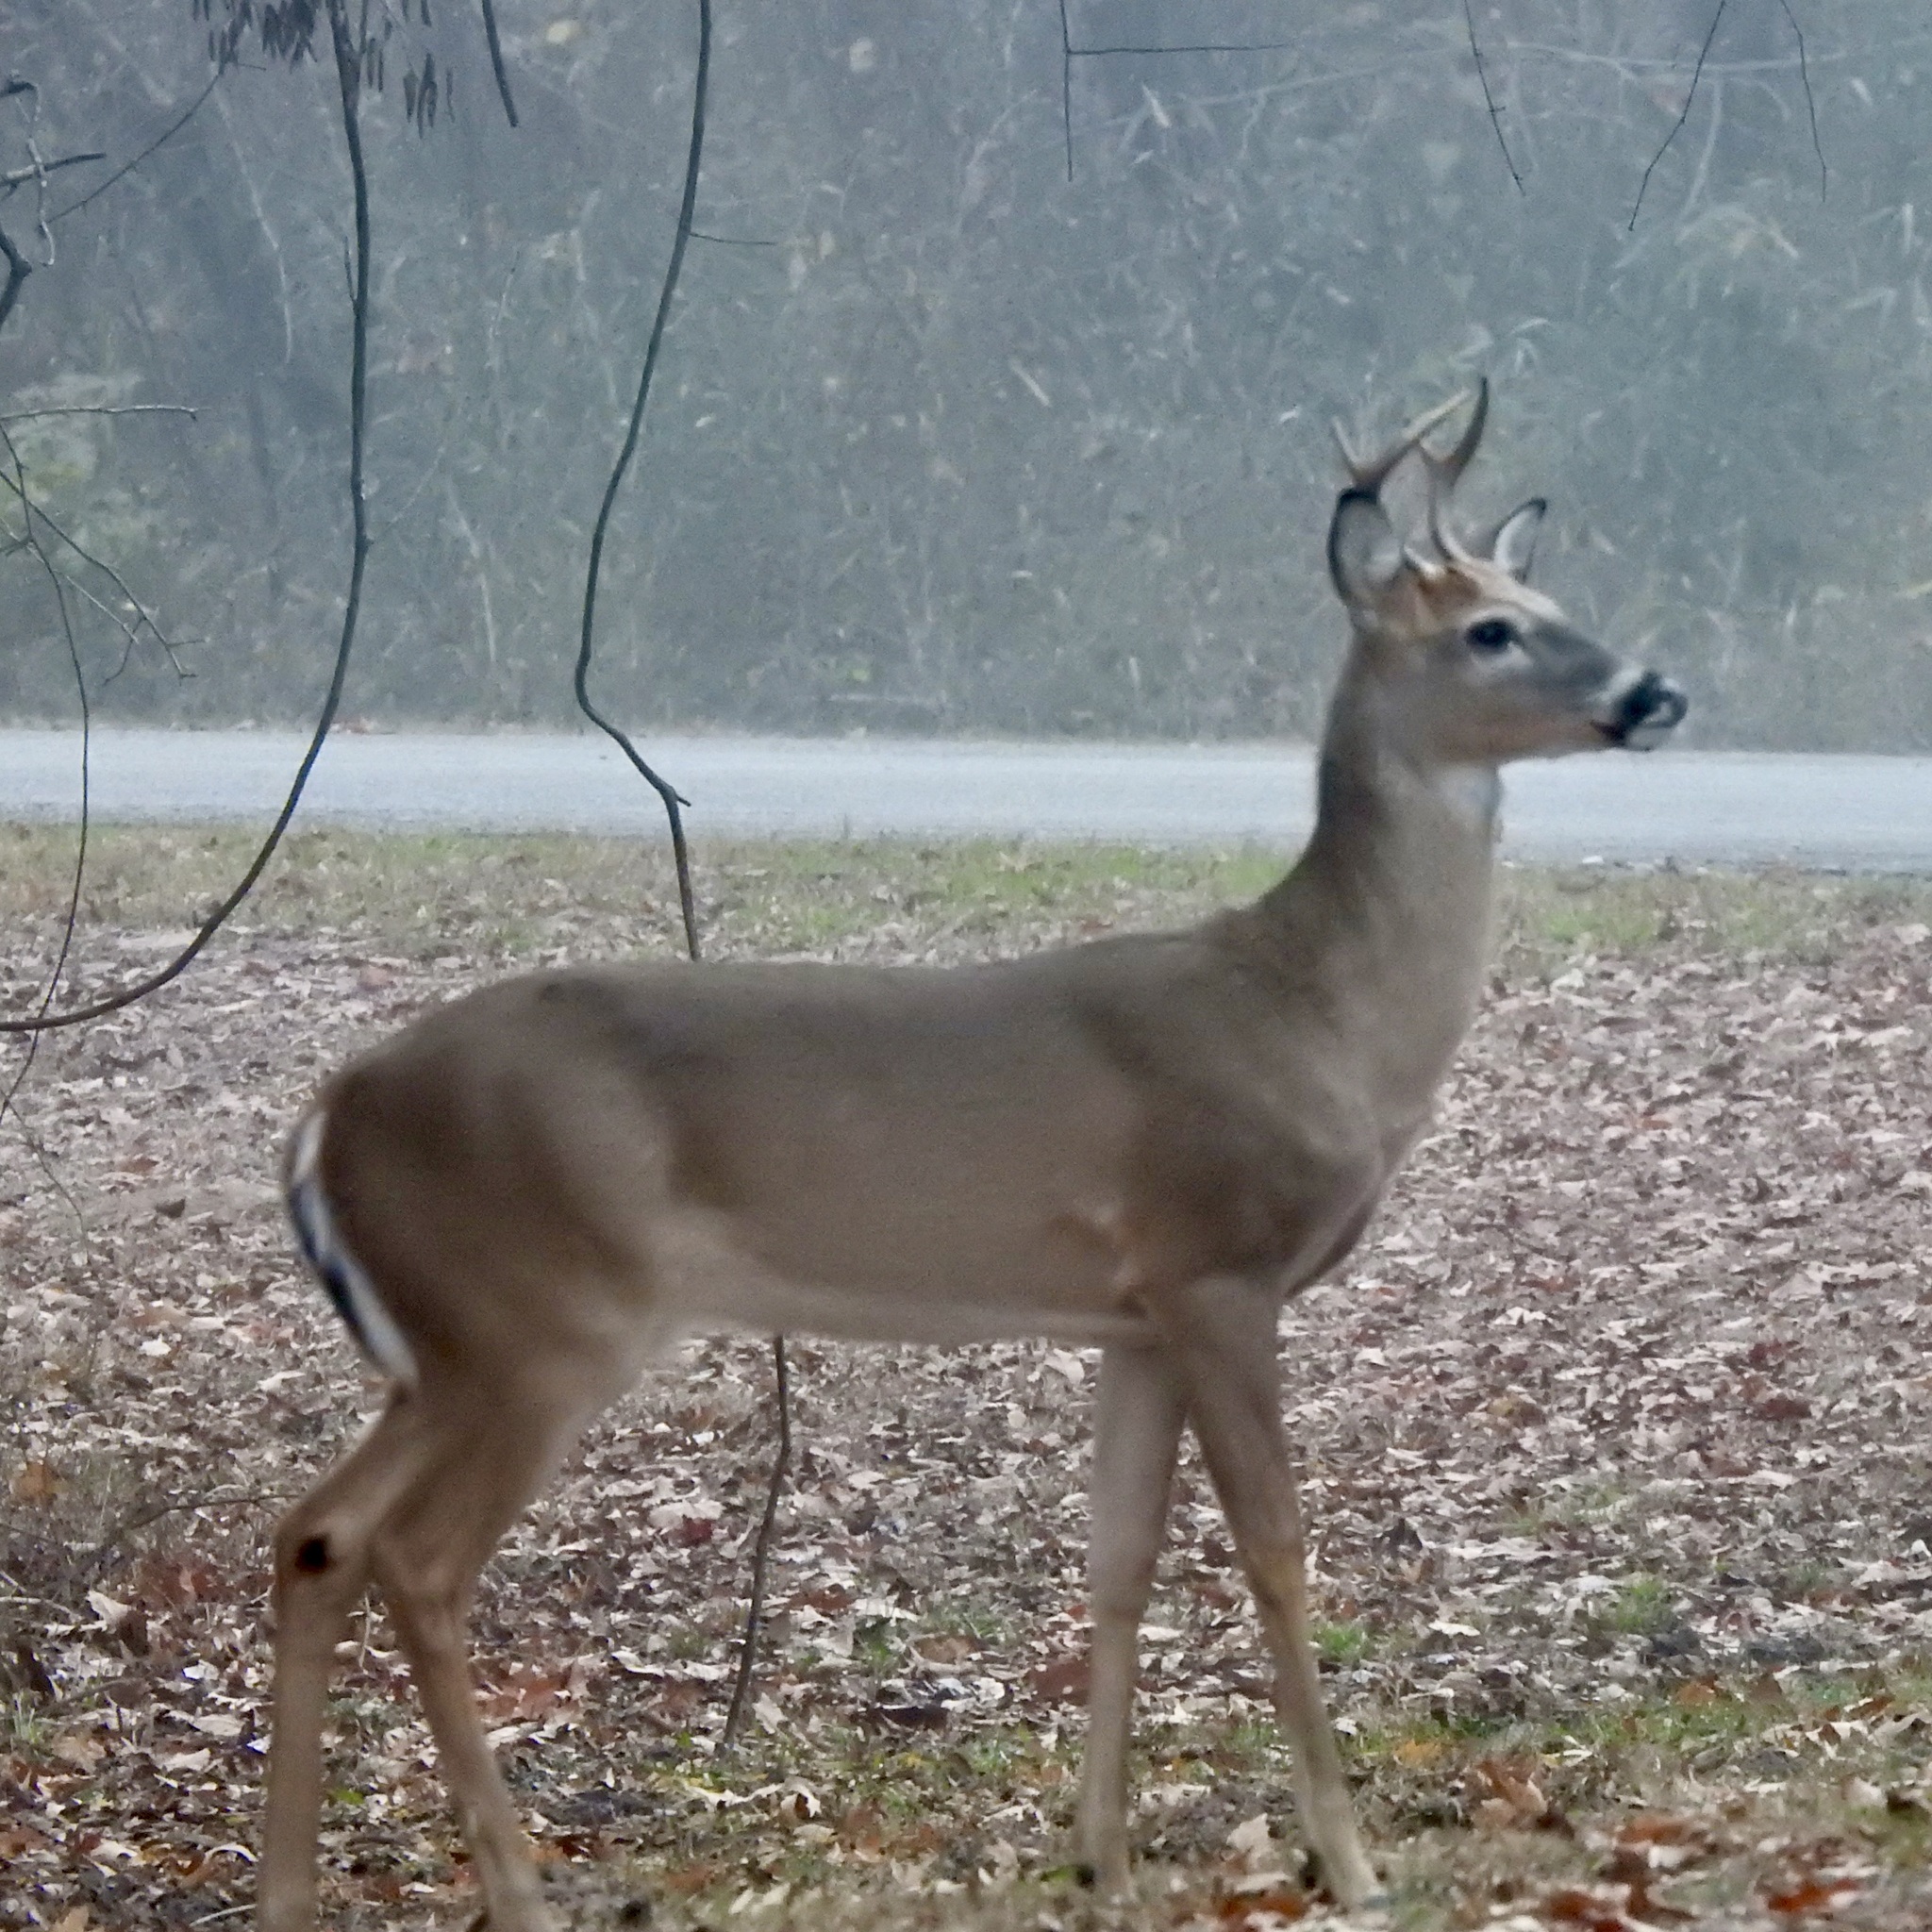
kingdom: Animalia
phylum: Chordata
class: Mammalia
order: Artiodactyla
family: Cervidae
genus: Odocoileus
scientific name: Odocoileus virginianus
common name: White-tailed deer
